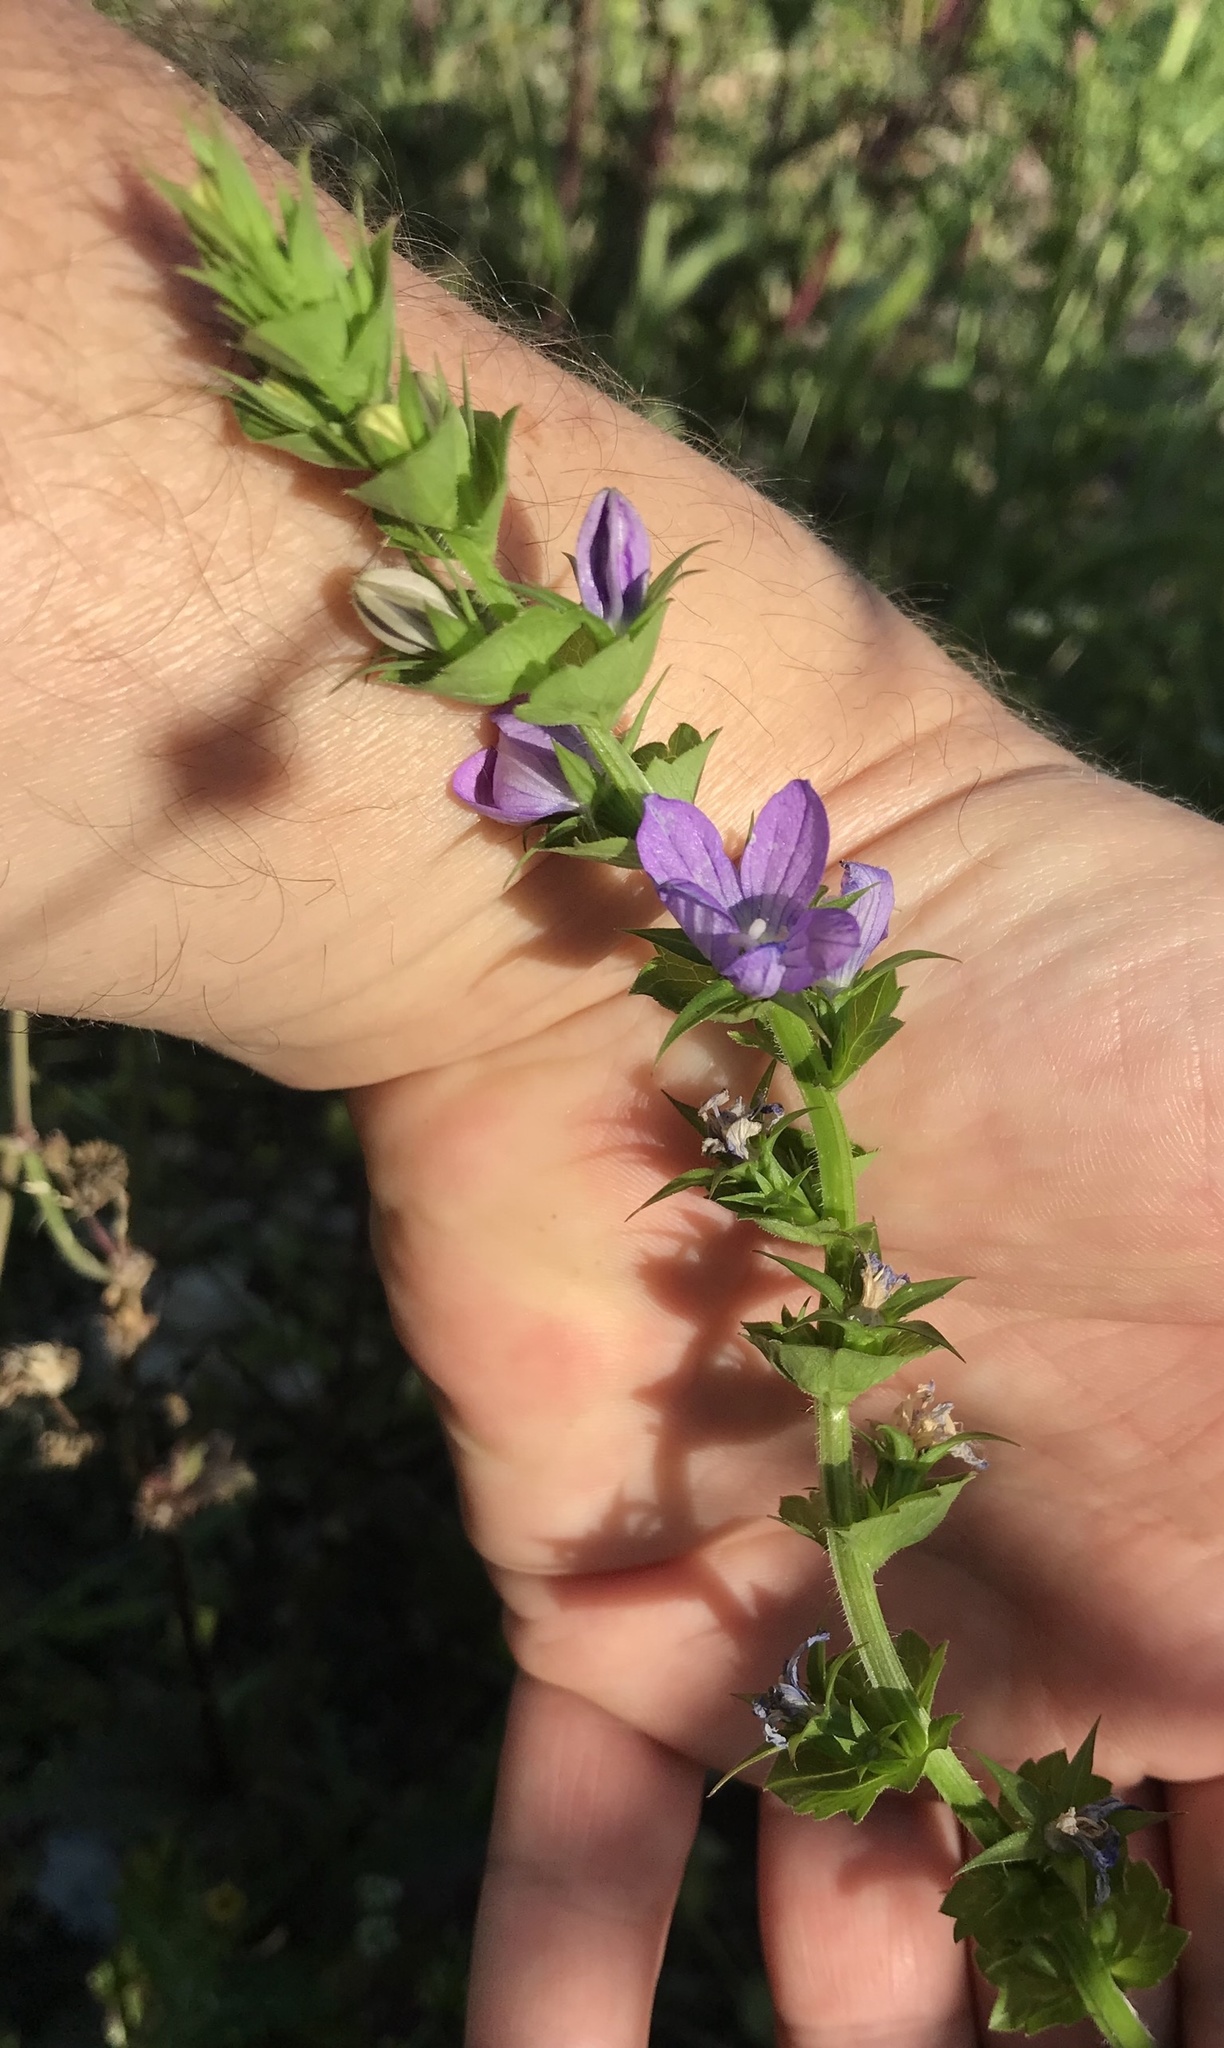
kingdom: Plantae
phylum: Tracheophyta
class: Magnoliopsida
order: Asterales
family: Campanulaceae
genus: Triodanis
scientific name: Triodanis texana
